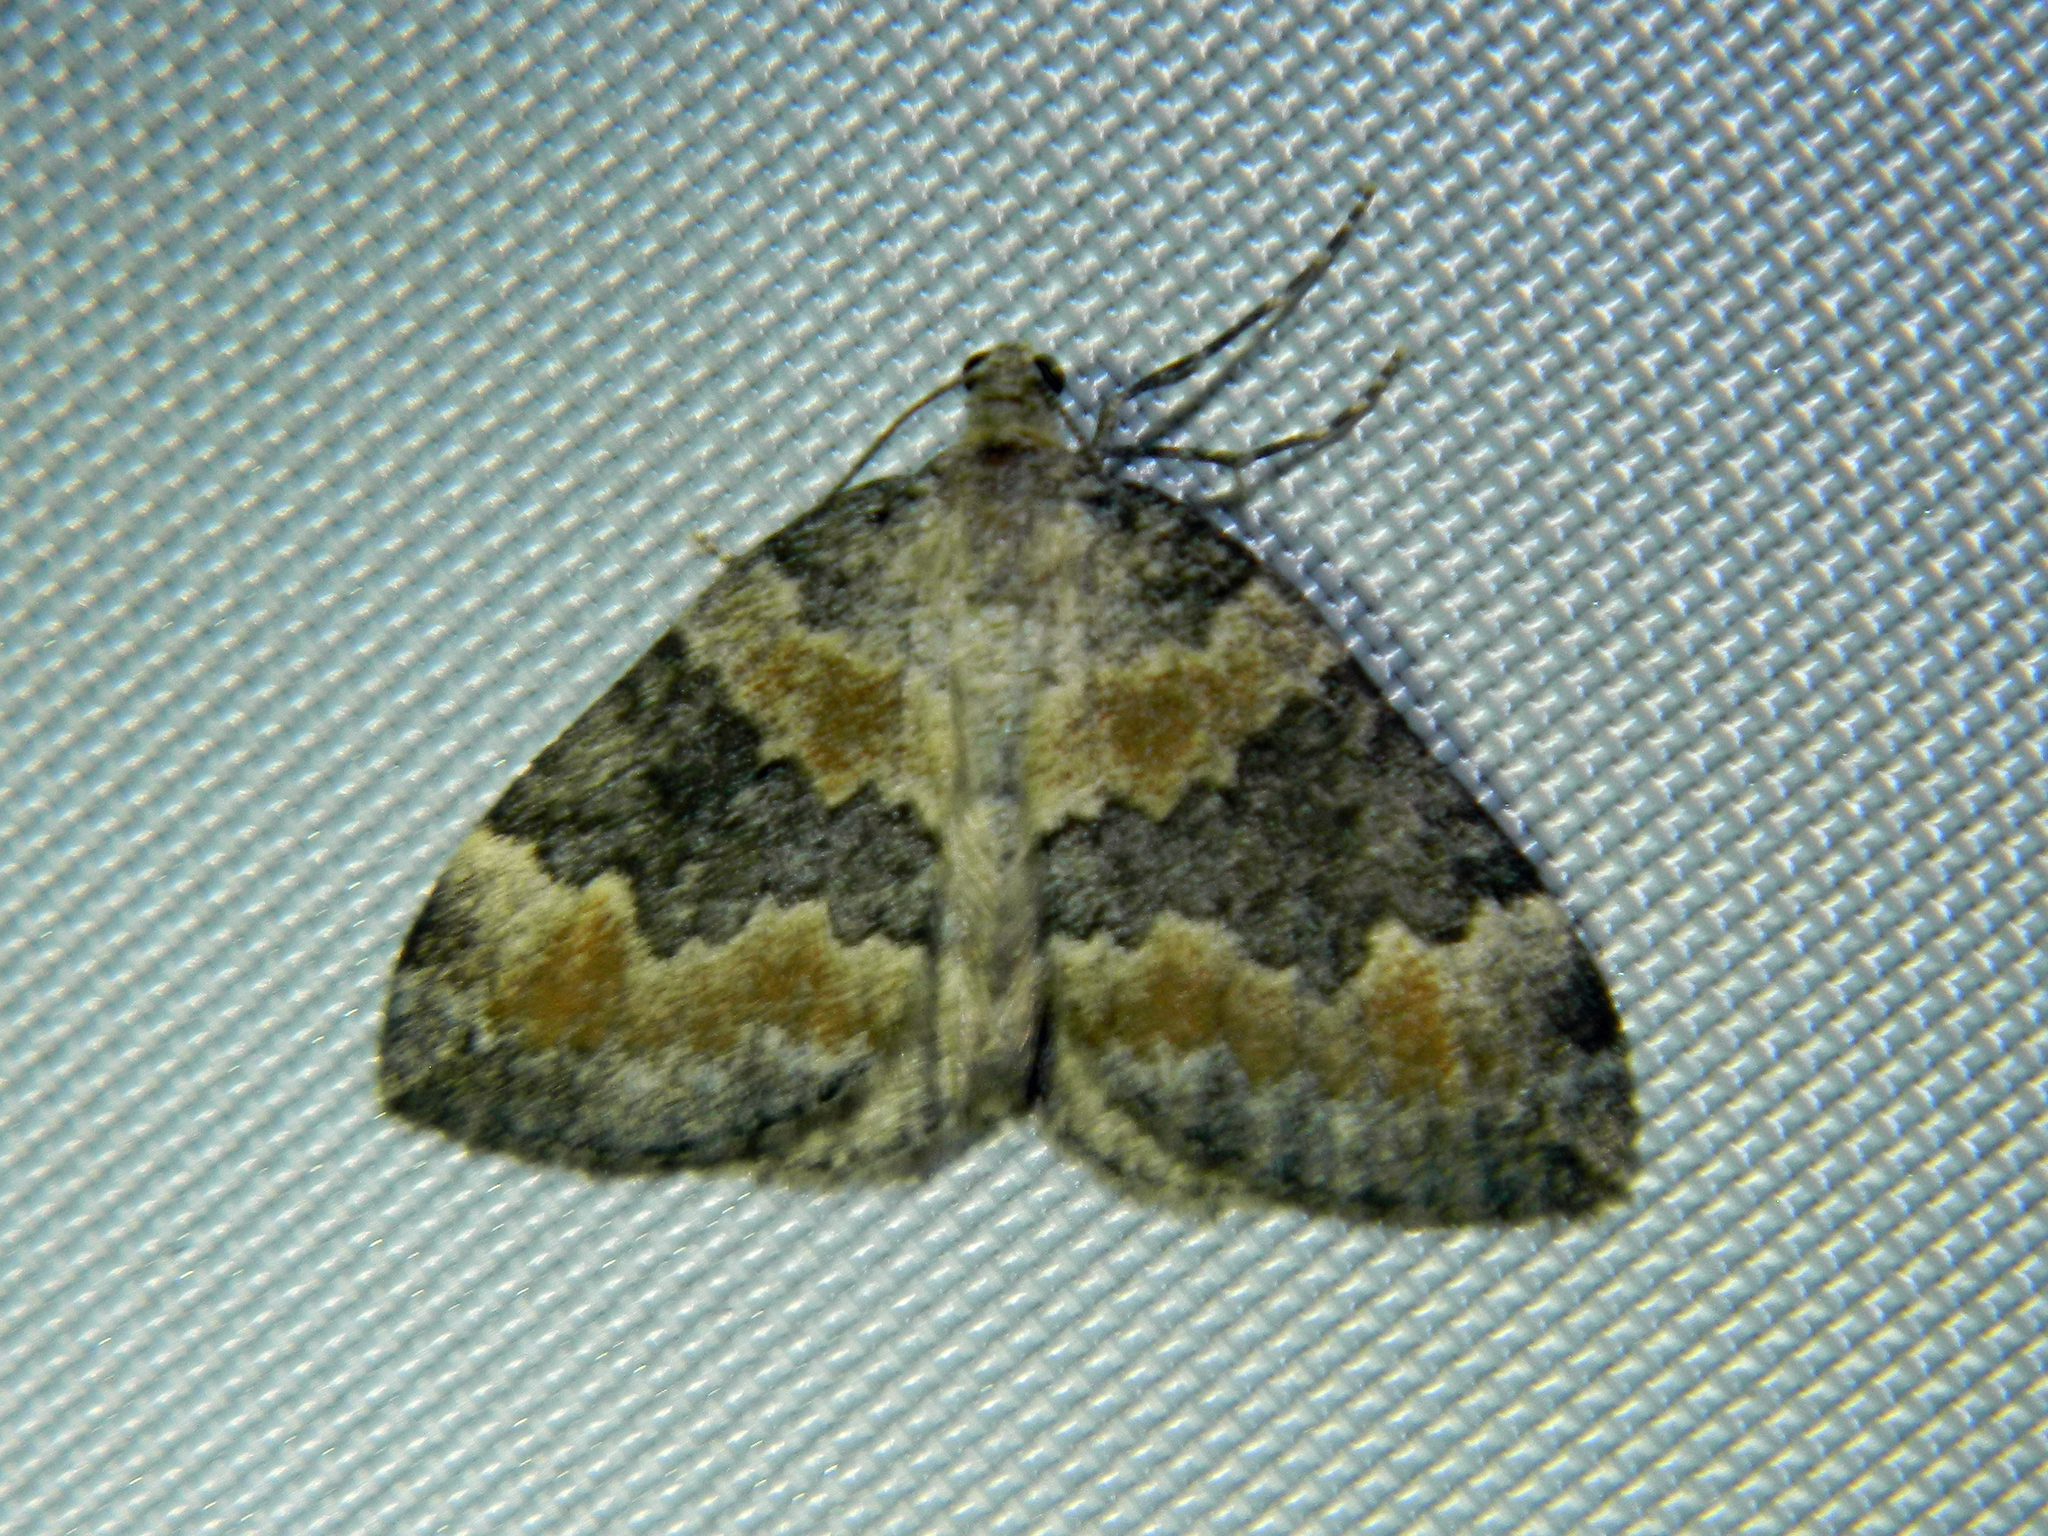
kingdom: Animalia
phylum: Arthropoda
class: Insecta
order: Lepidoptera
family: Geometridae
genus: Dysstroma
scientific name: Dysstroma brunneata
